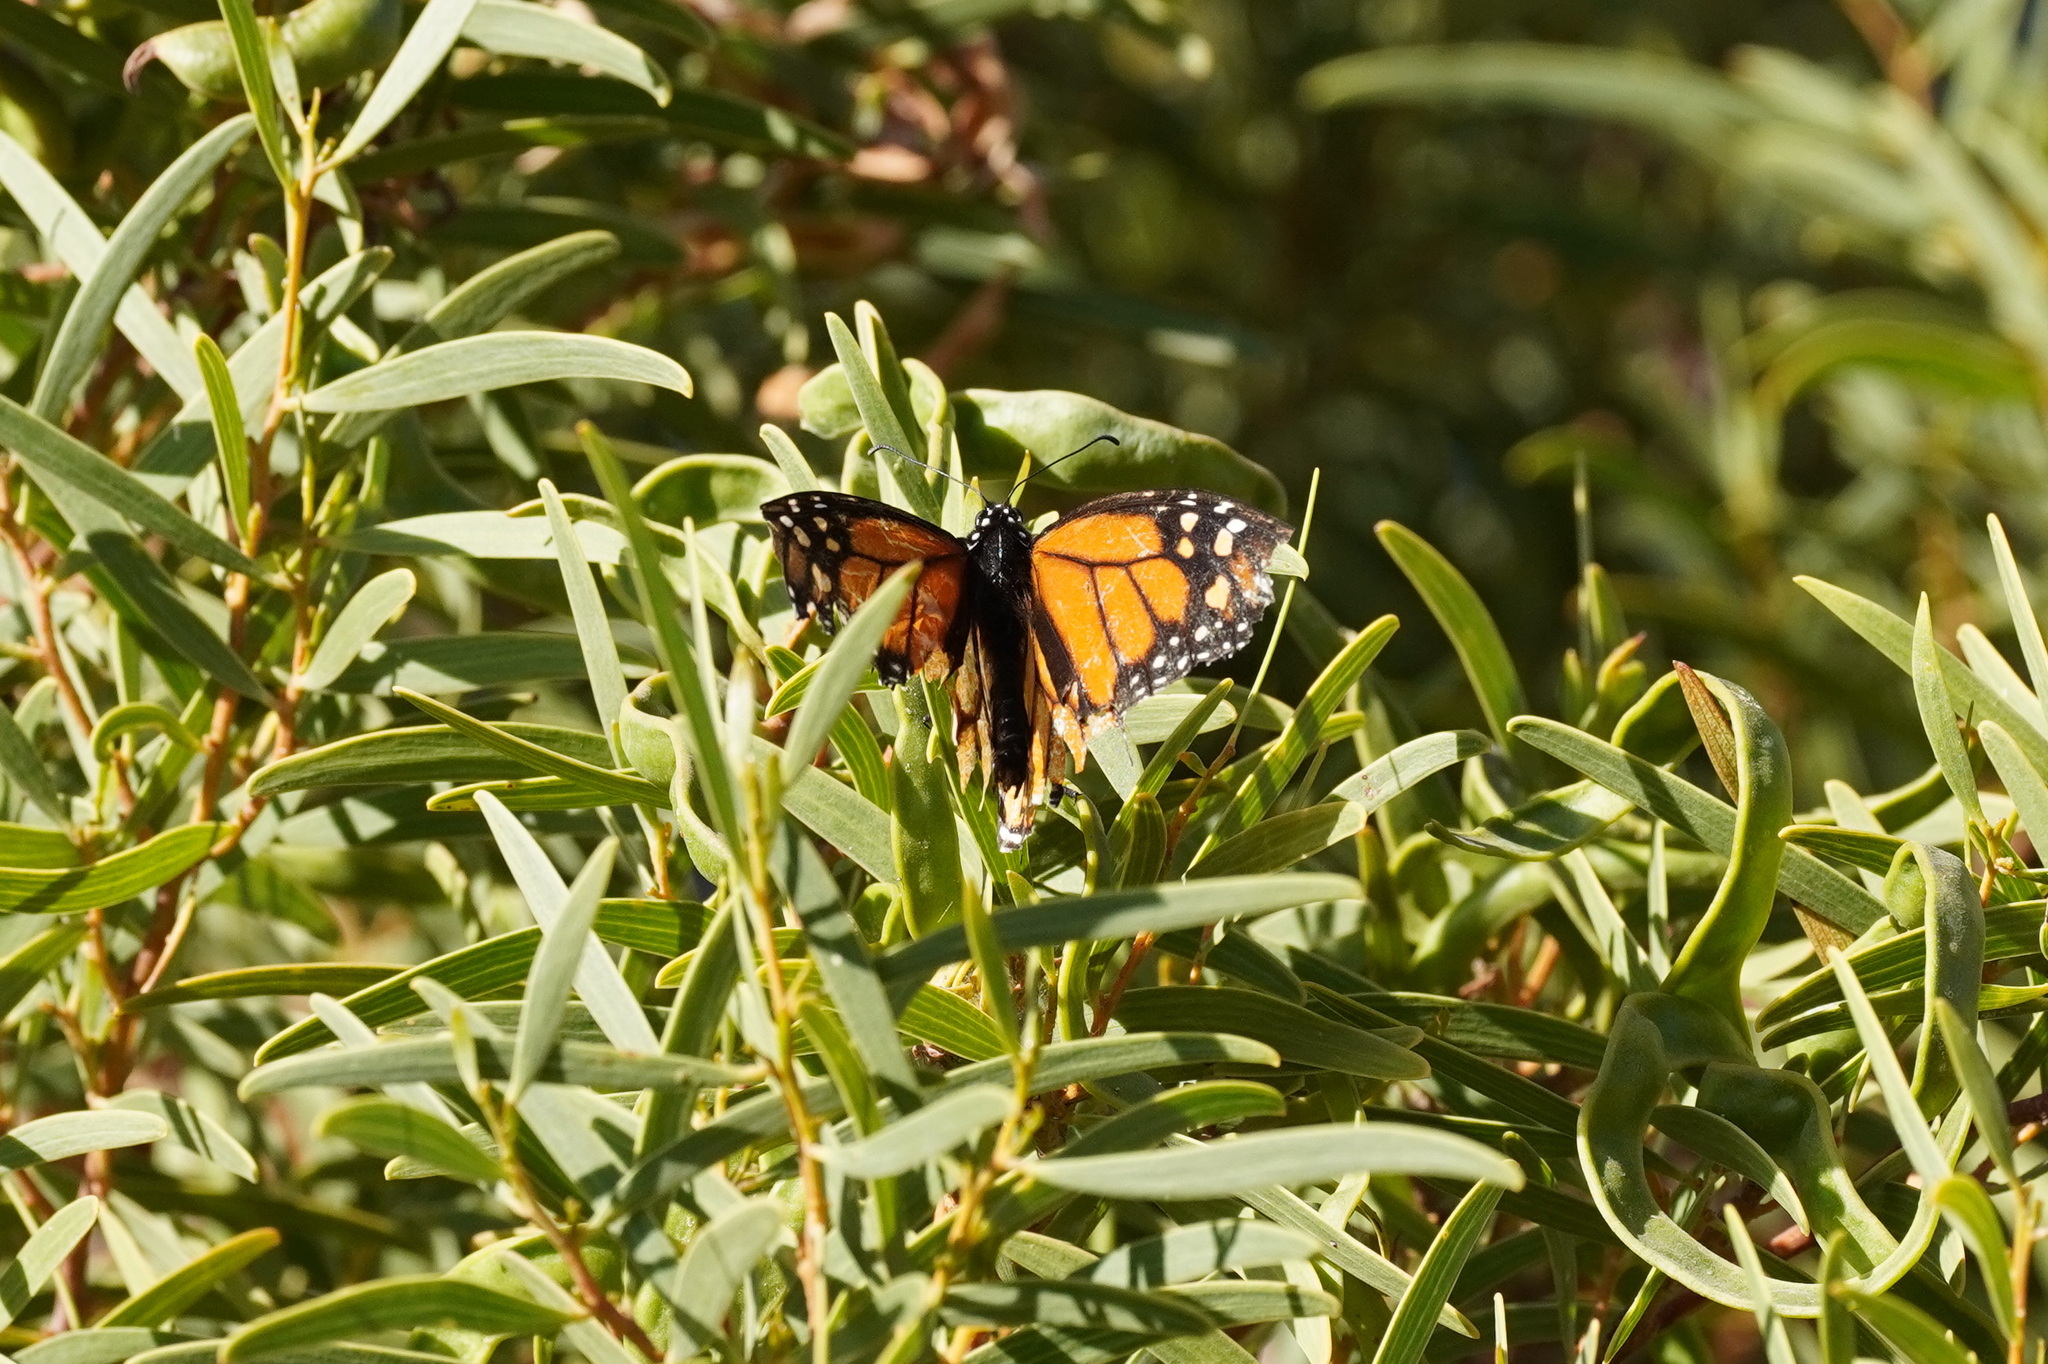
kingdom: Animalia
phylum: Arthropoda
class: Insecta
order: Lepidoptera
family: Nymphalidae
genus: Danaus
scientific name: Danaus plexippus
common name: Monarch
